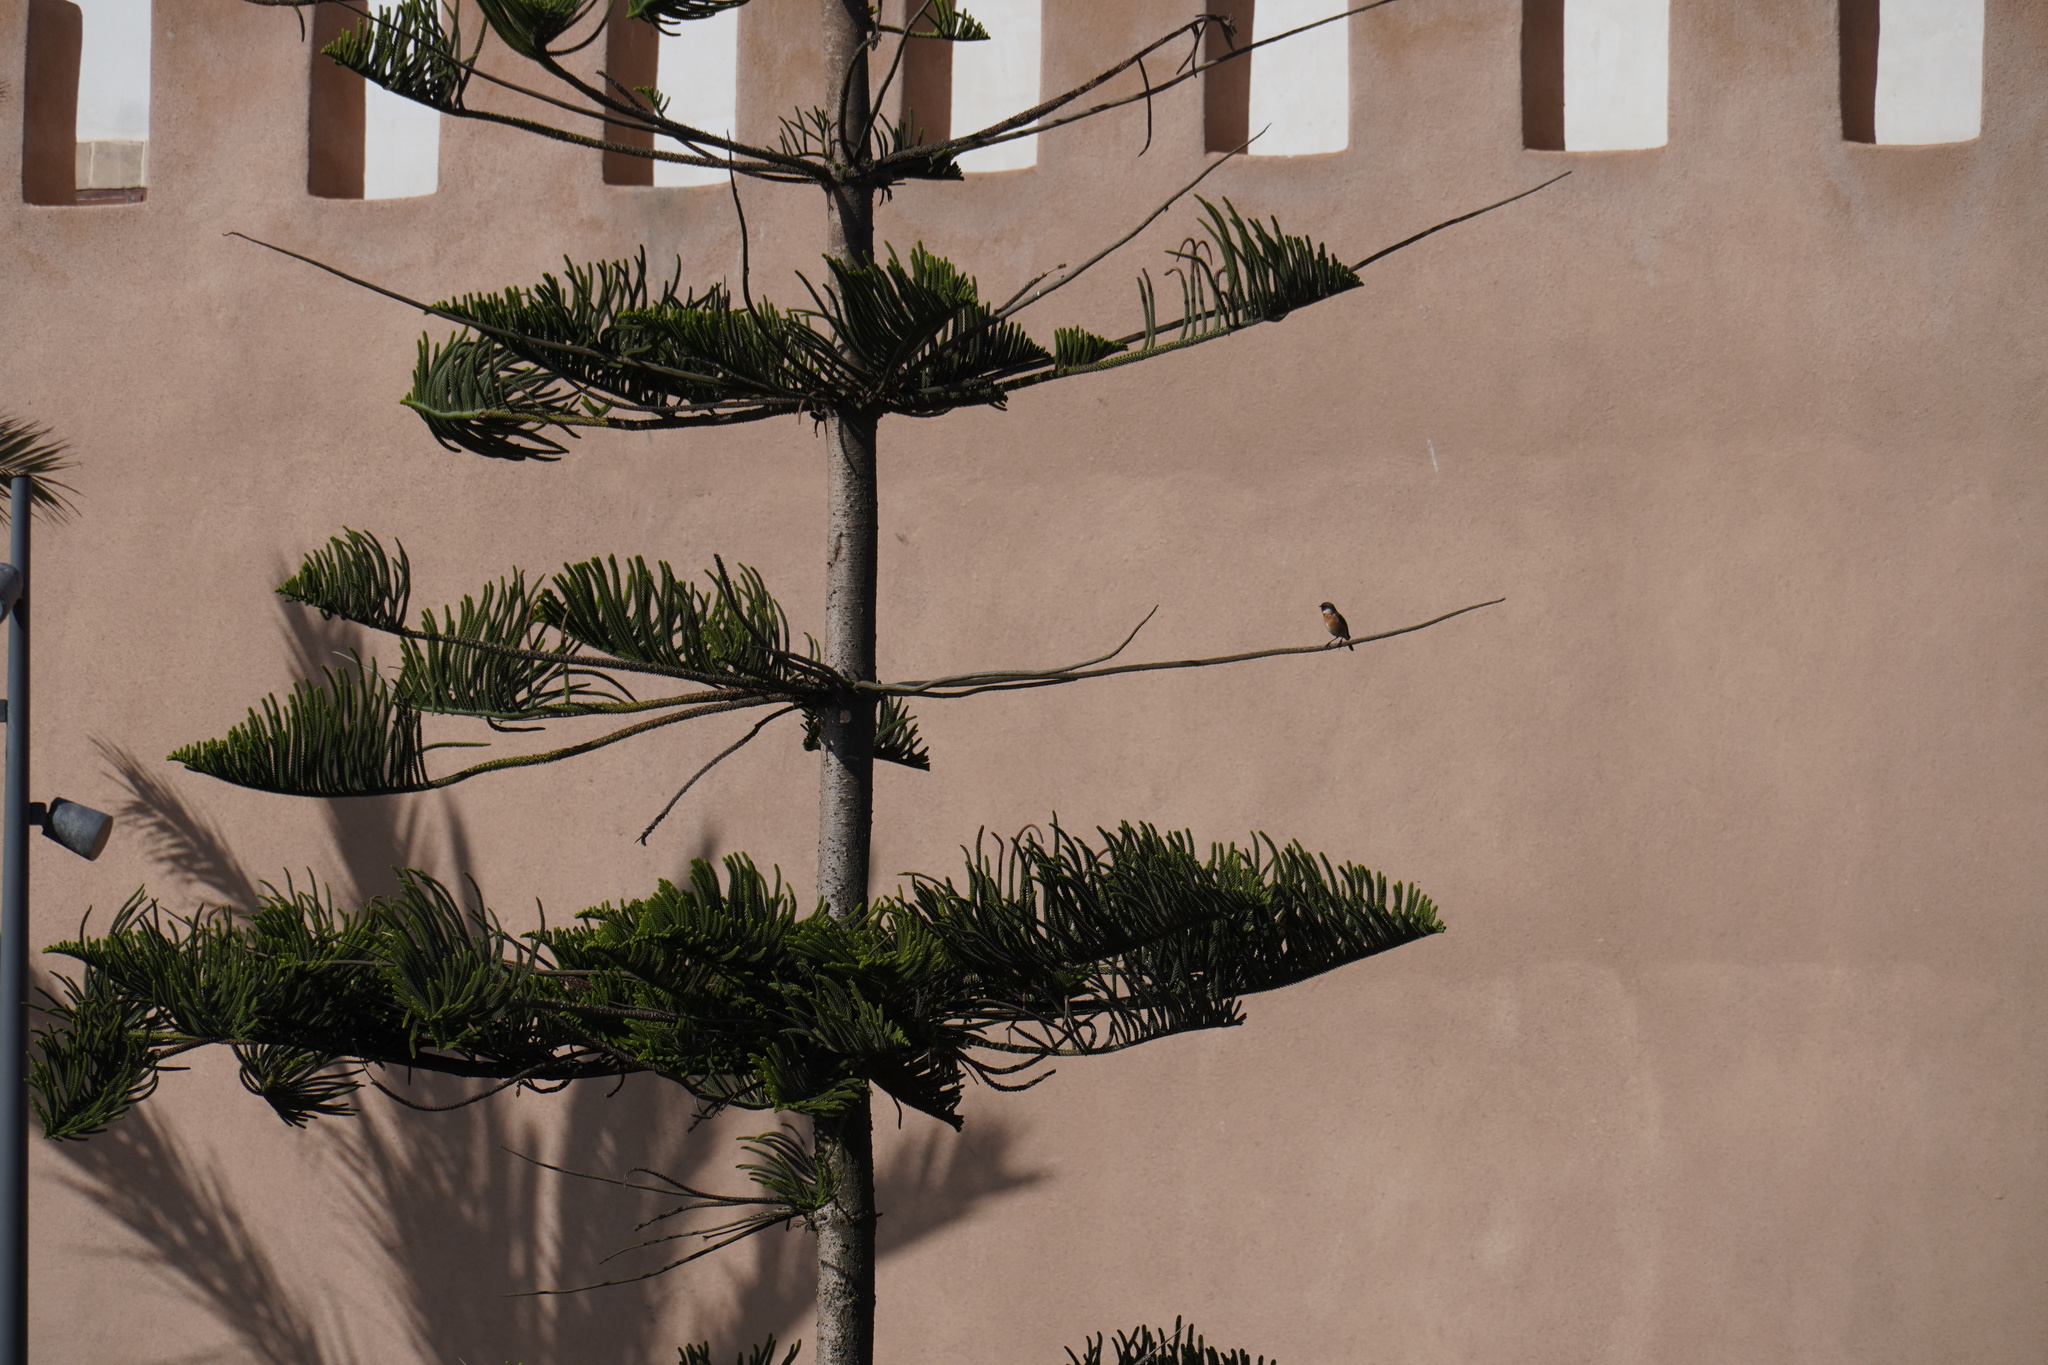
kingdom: Animalia
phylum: Chordata
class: Aves
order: Passeriformes
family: Muscicapidae
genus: Saxicola
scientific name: Saxicola rubicola
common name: European stonechat
